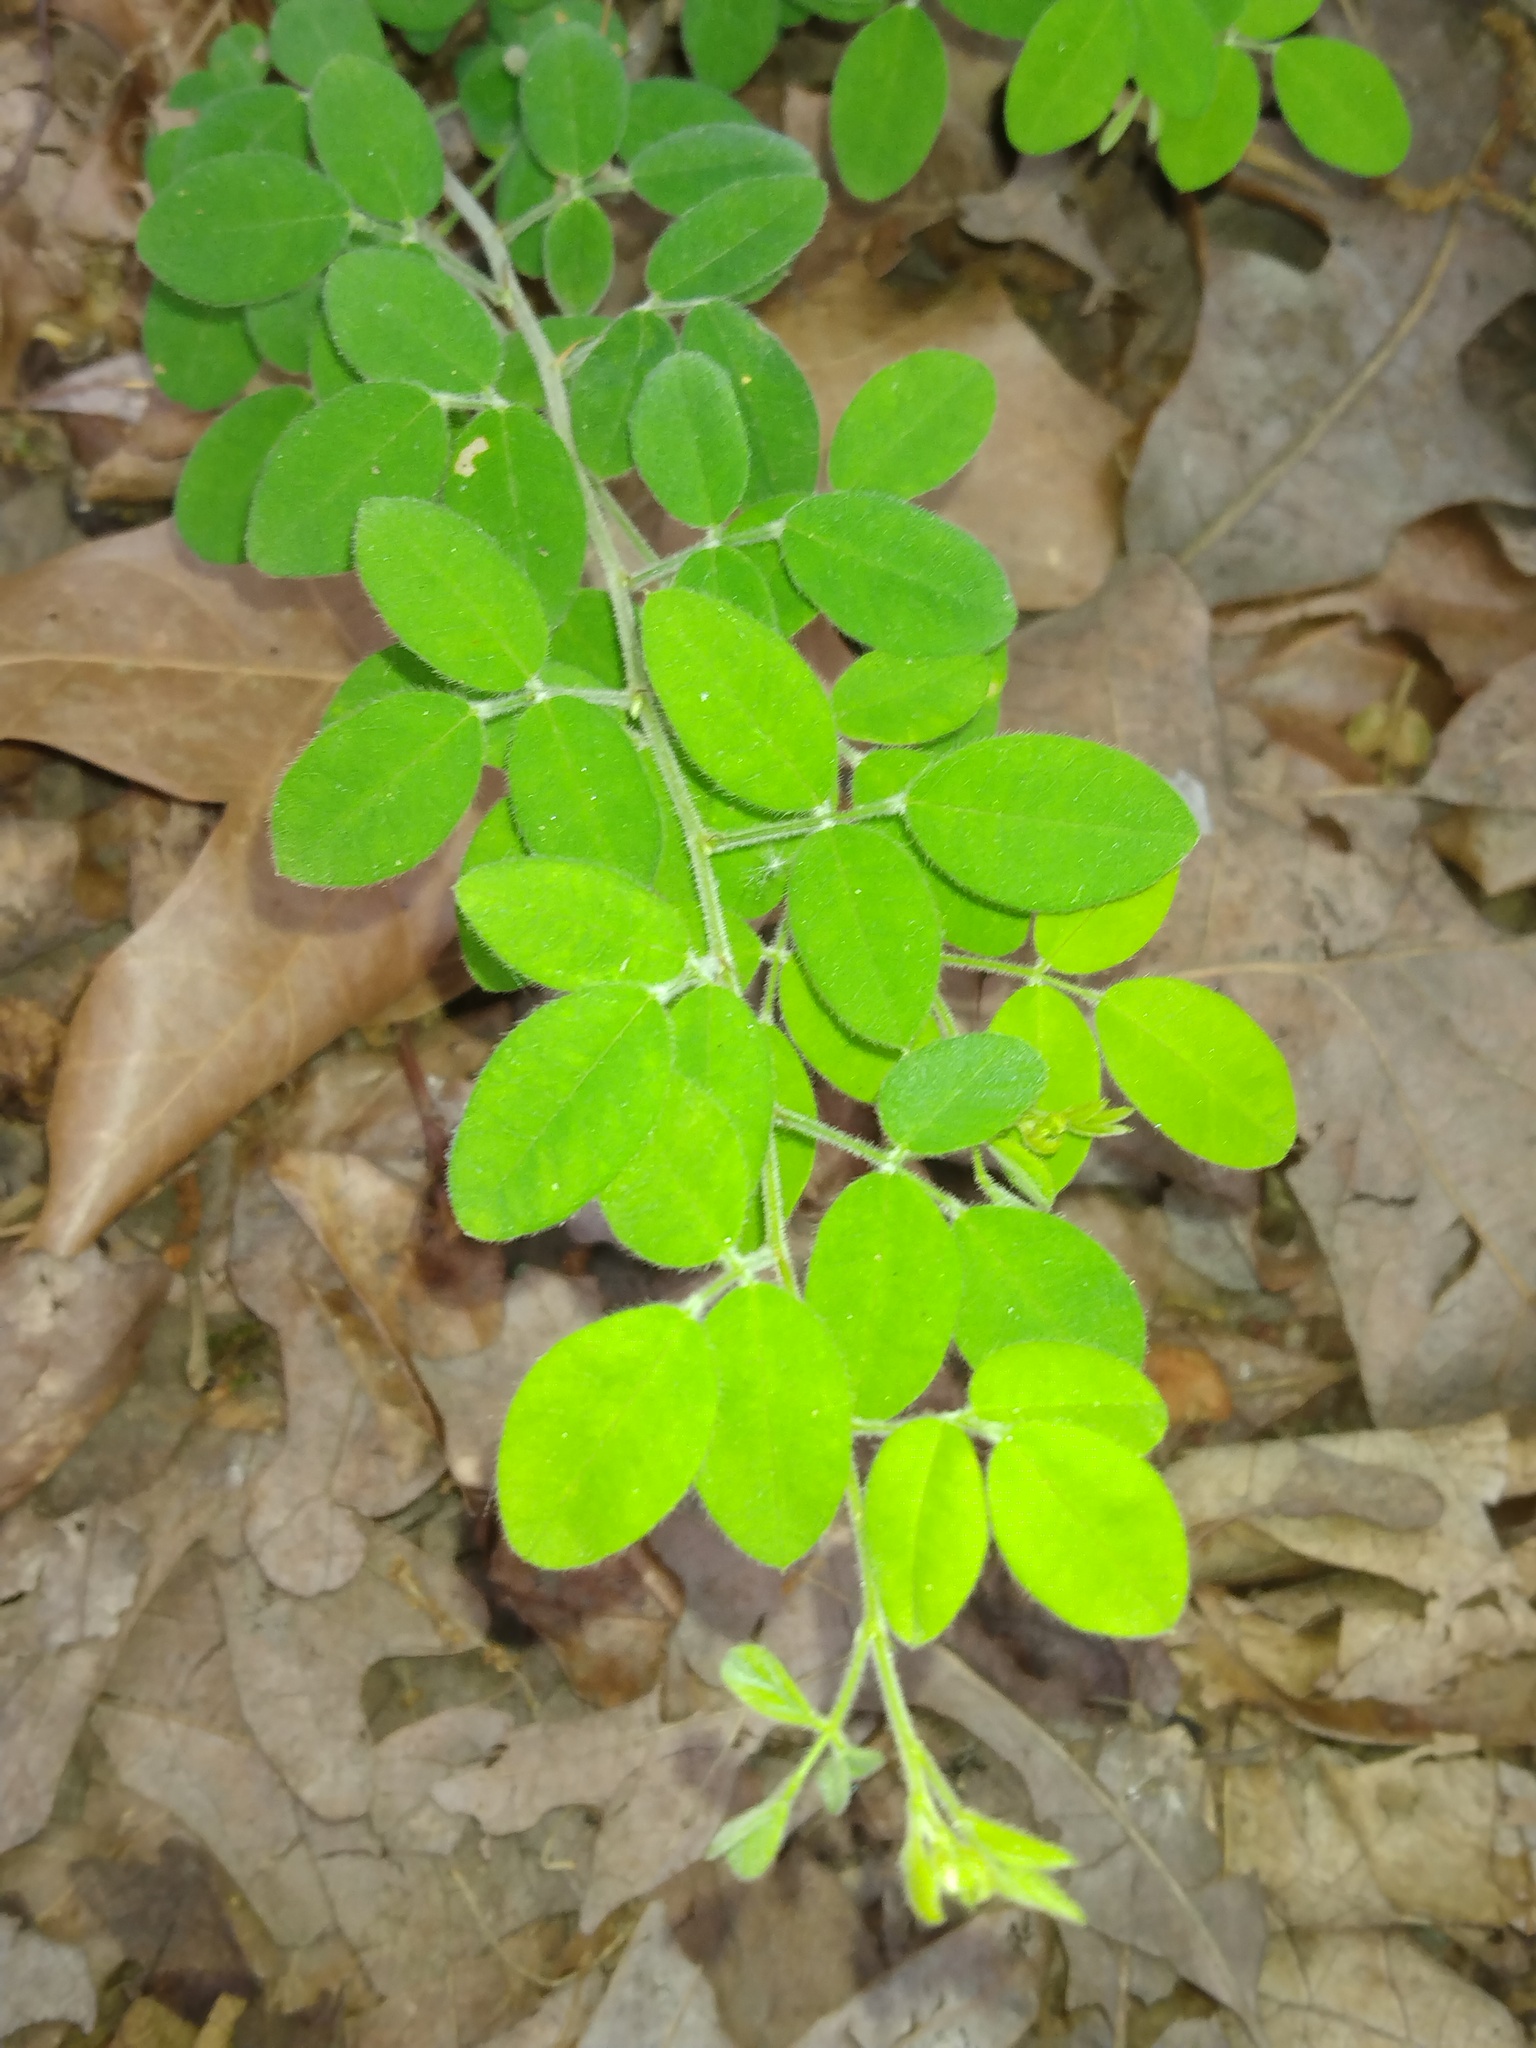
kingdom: Plantae
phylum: Tracheophyta
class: Magnoliopsida
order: Fabales
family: Fabaceae
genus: Lespedeza
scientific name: Lespedeza procumbens
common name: Downy trailing bush-clover
